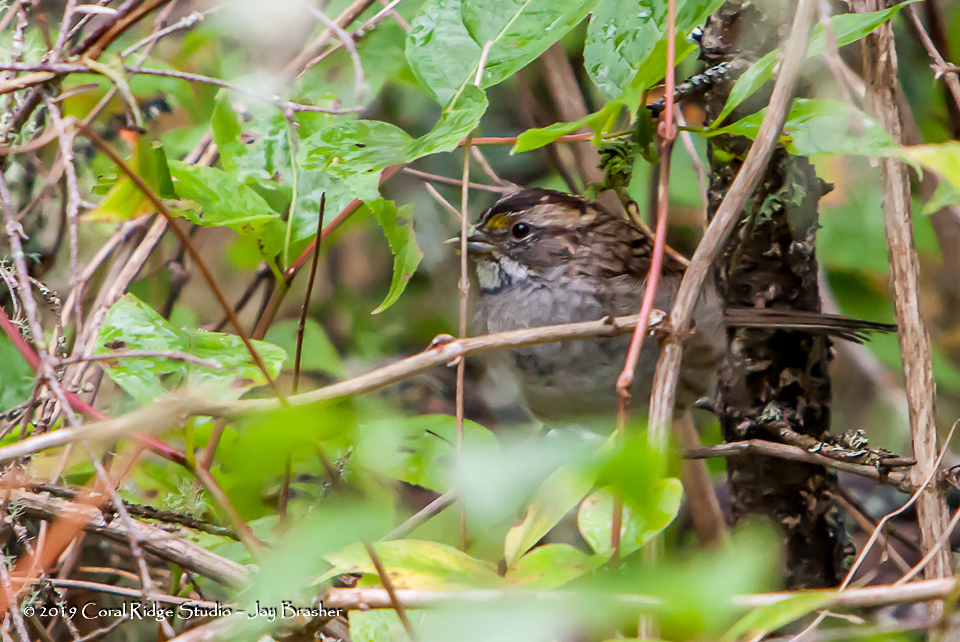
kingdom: Animalia
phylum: Chordata
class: Aves
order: Passeriformes
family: Passerellidae
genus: Zonotrichia
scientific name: Zonotrichia albicollis
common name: White-throated sparrow
